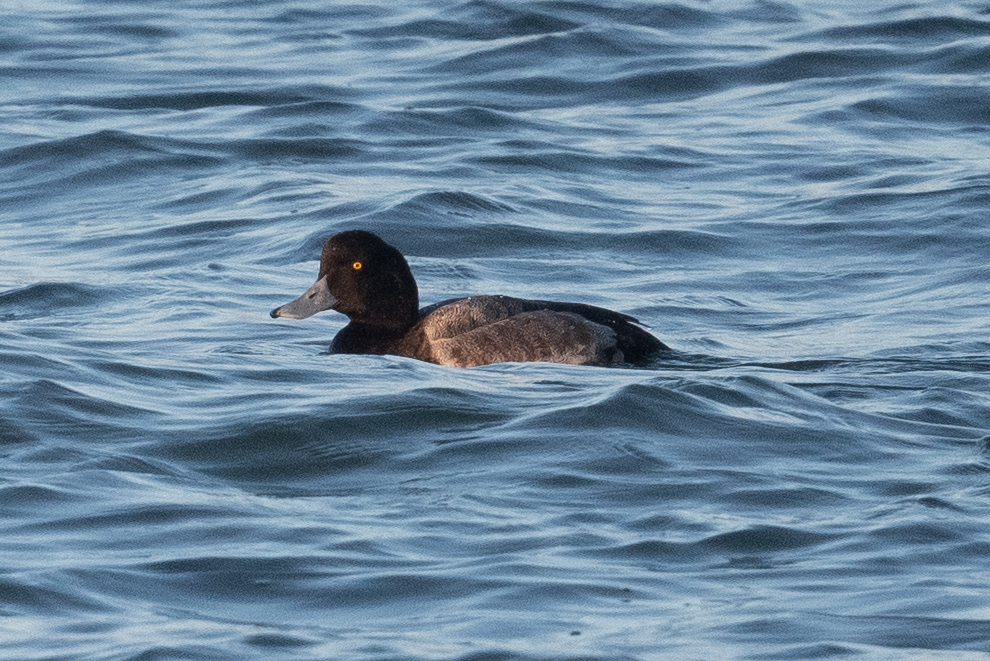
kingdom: Animalia
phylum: Chordata
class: Aves
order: Anseriformes
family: Anatidae
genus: Aythya
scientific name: Aythya marila
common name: Greater scaup
